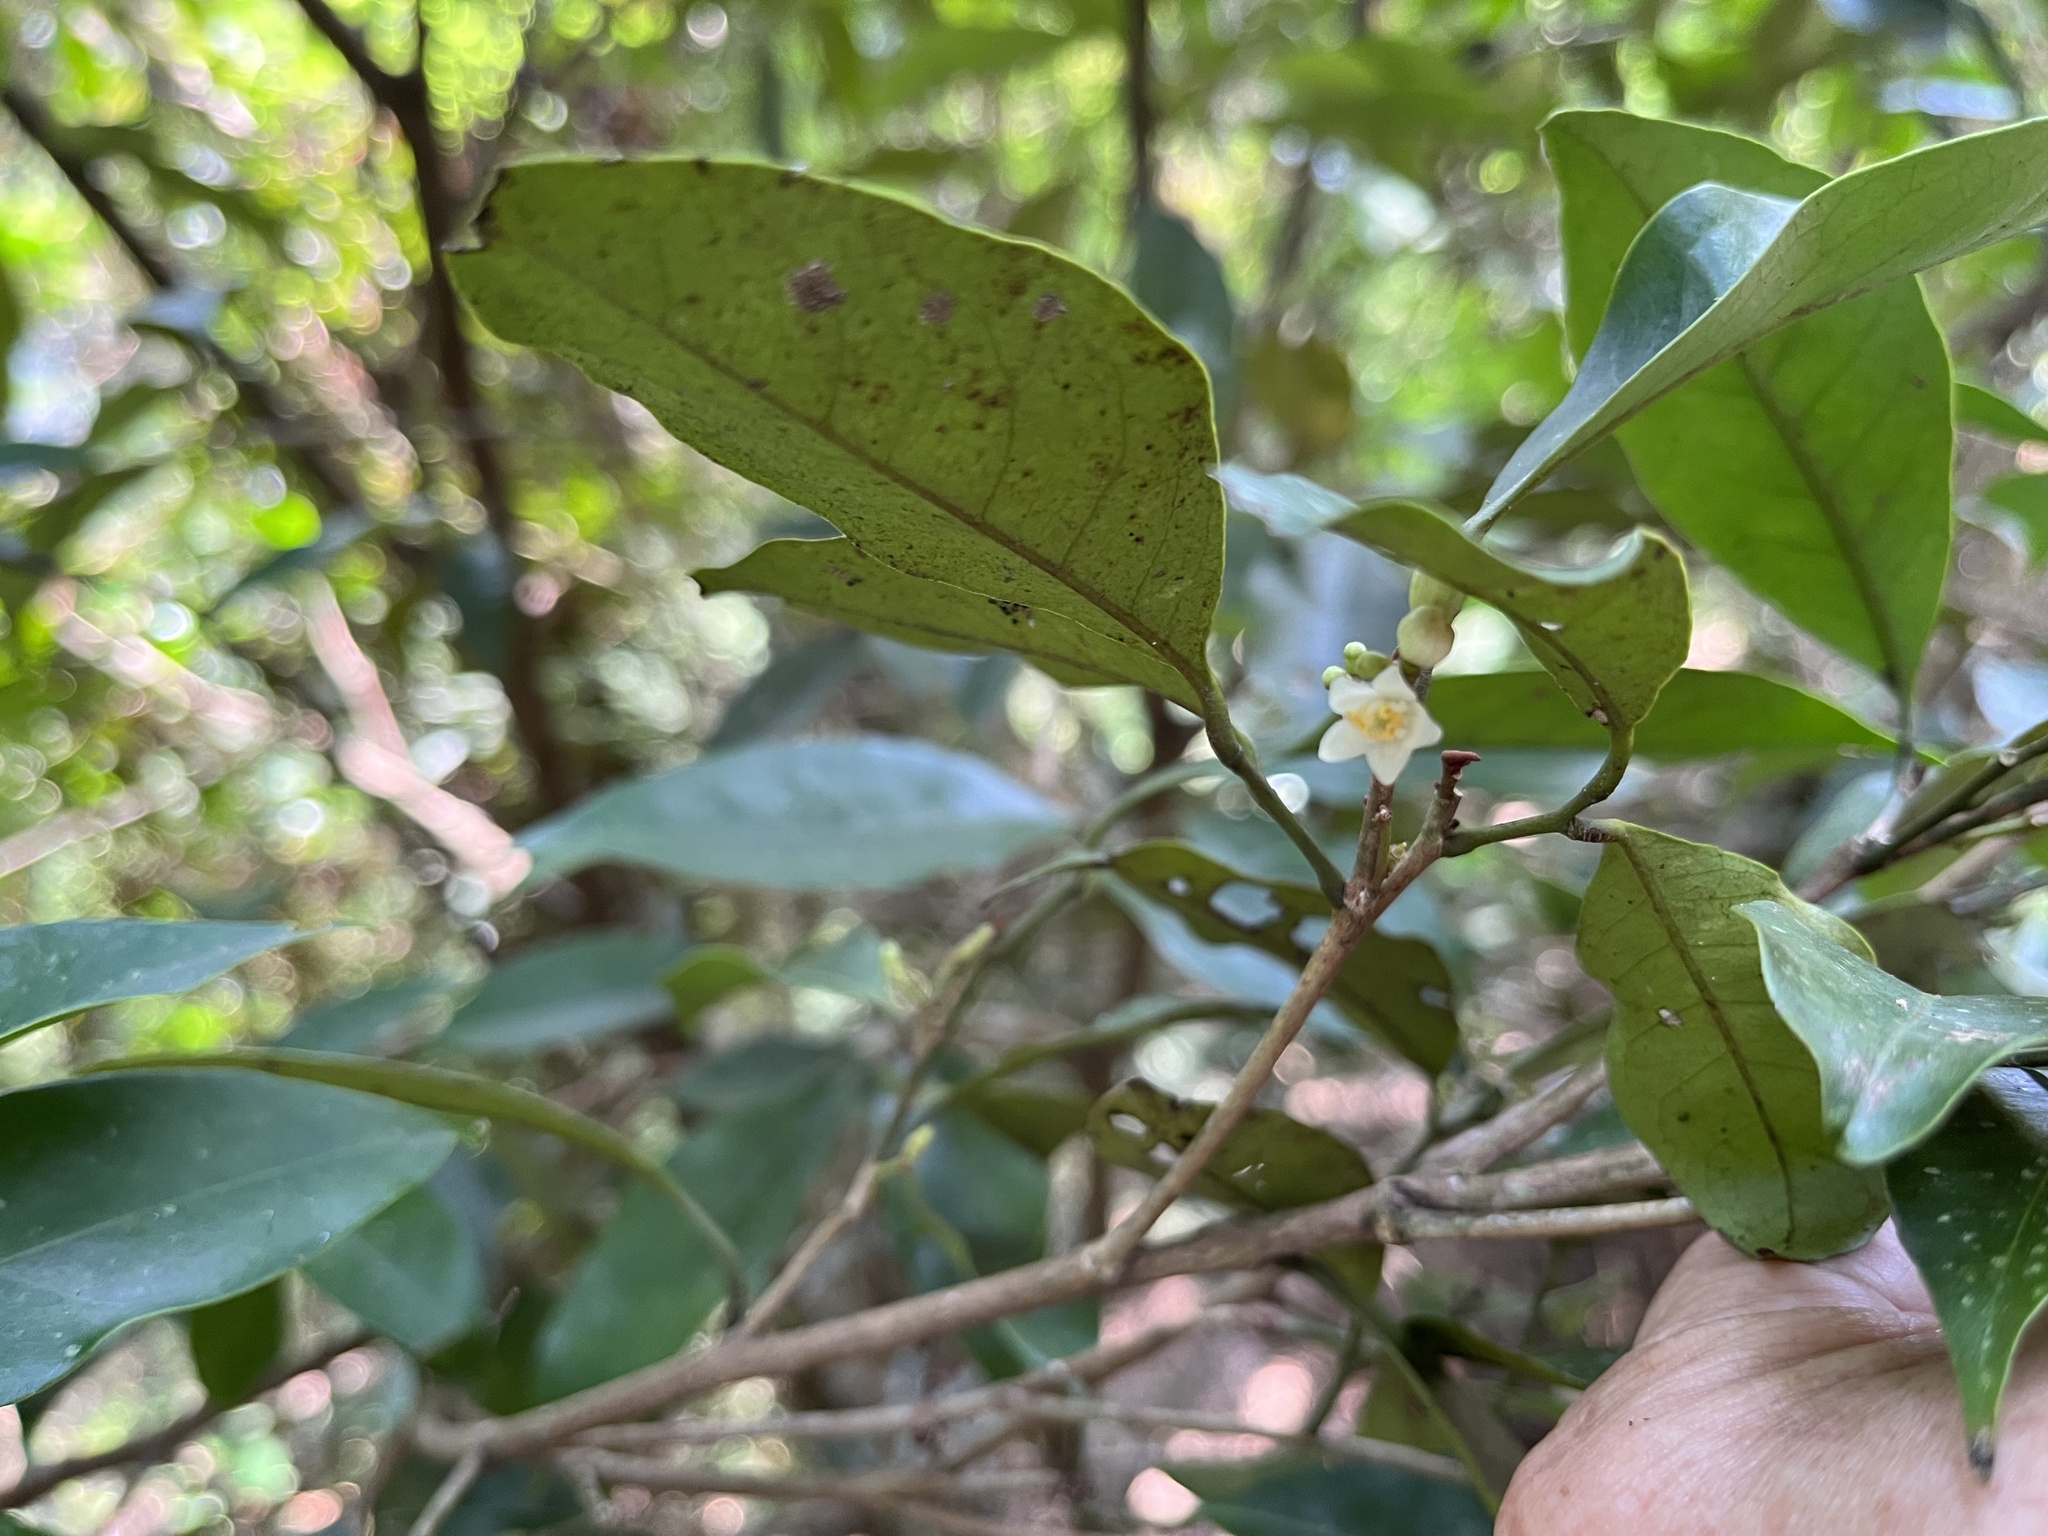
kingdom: Plantae
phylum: Tracheophyta
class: Magnoliopsida
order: Sapindales
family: Rutaceae
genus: Glycosmis
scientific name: Glycosmis parviflora
